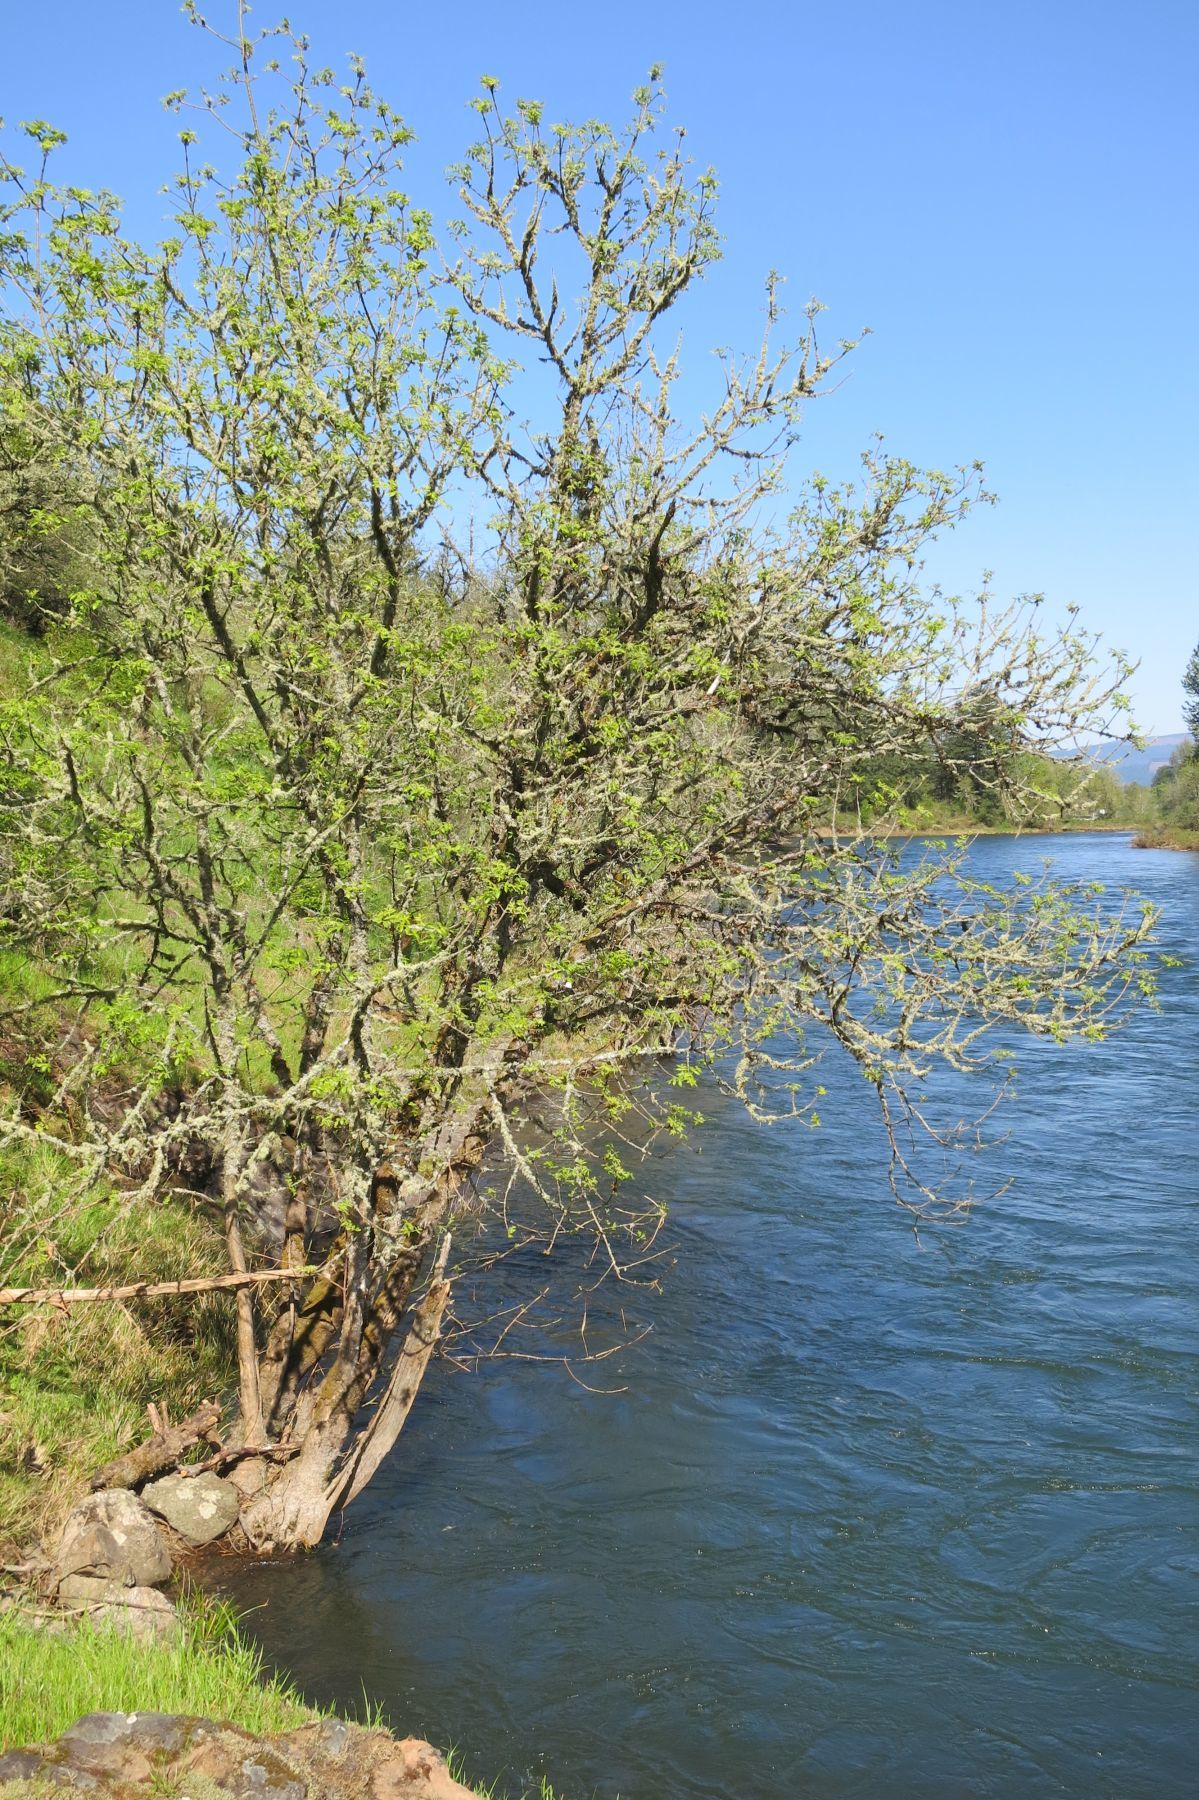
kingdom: Plantae
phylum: Tracheophyta
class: Magnoliopsida
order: Lamiales
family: Oleaceae
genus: Fraxinus
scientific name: Fraxinus latifolia
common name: Oregon ash
